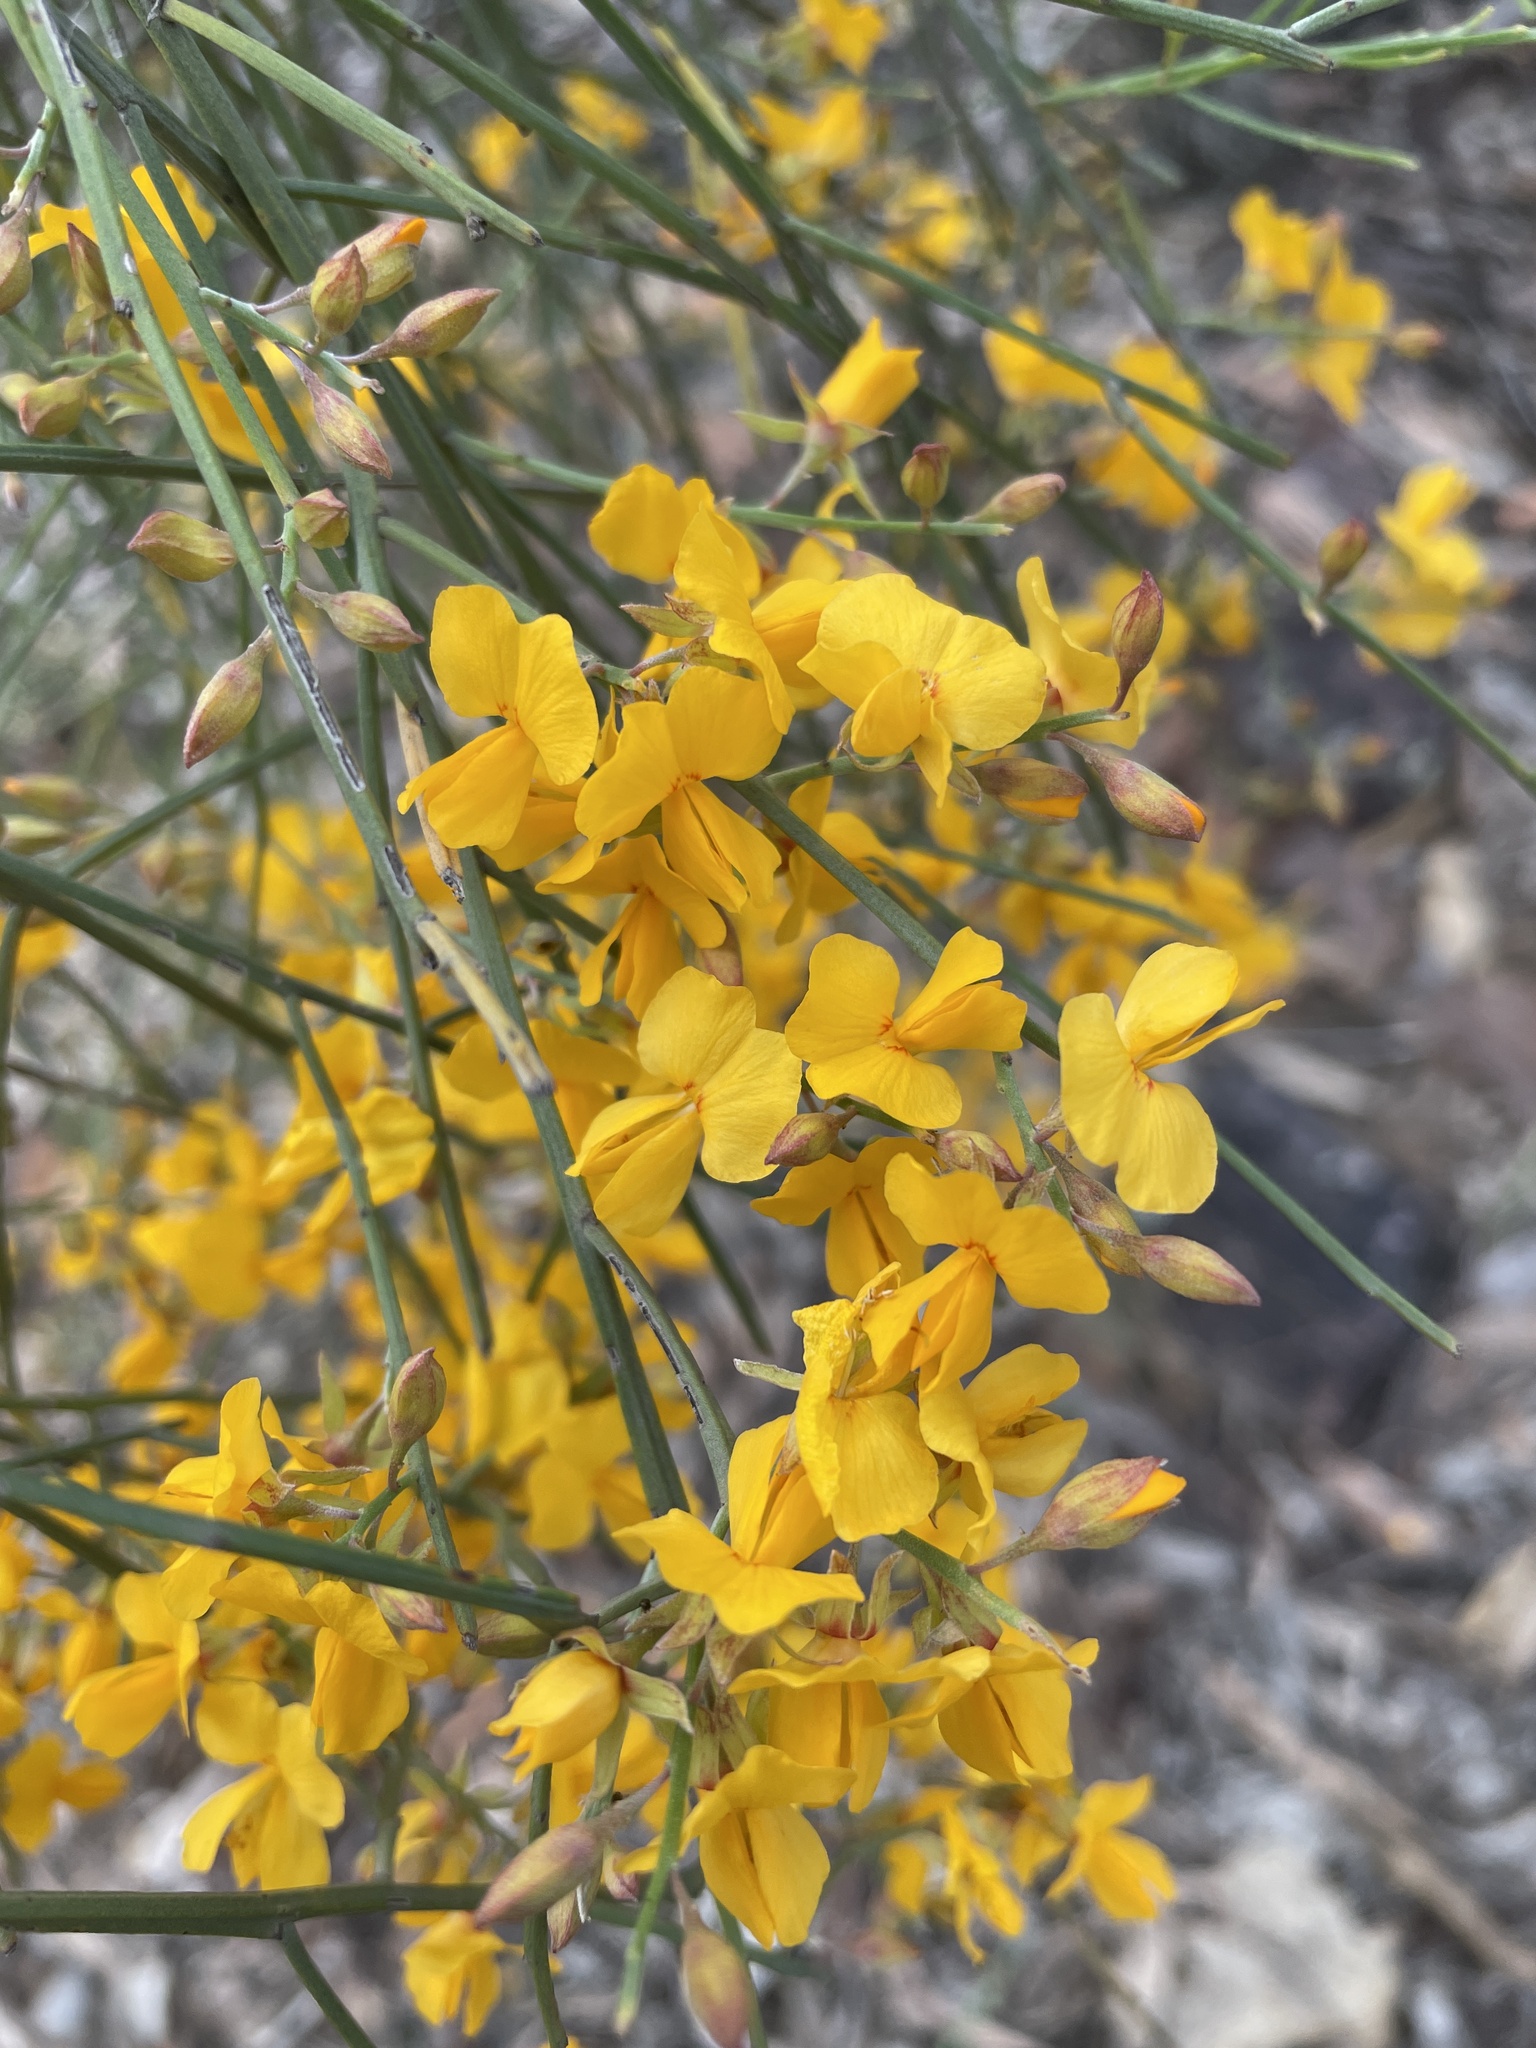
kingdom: Plantae
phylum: Tracheophyta
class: Magnoliopsida
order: Fabales
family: Fabaceae
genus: Jacksonia
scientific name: Jacksonia scoparia
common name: Dogwood
